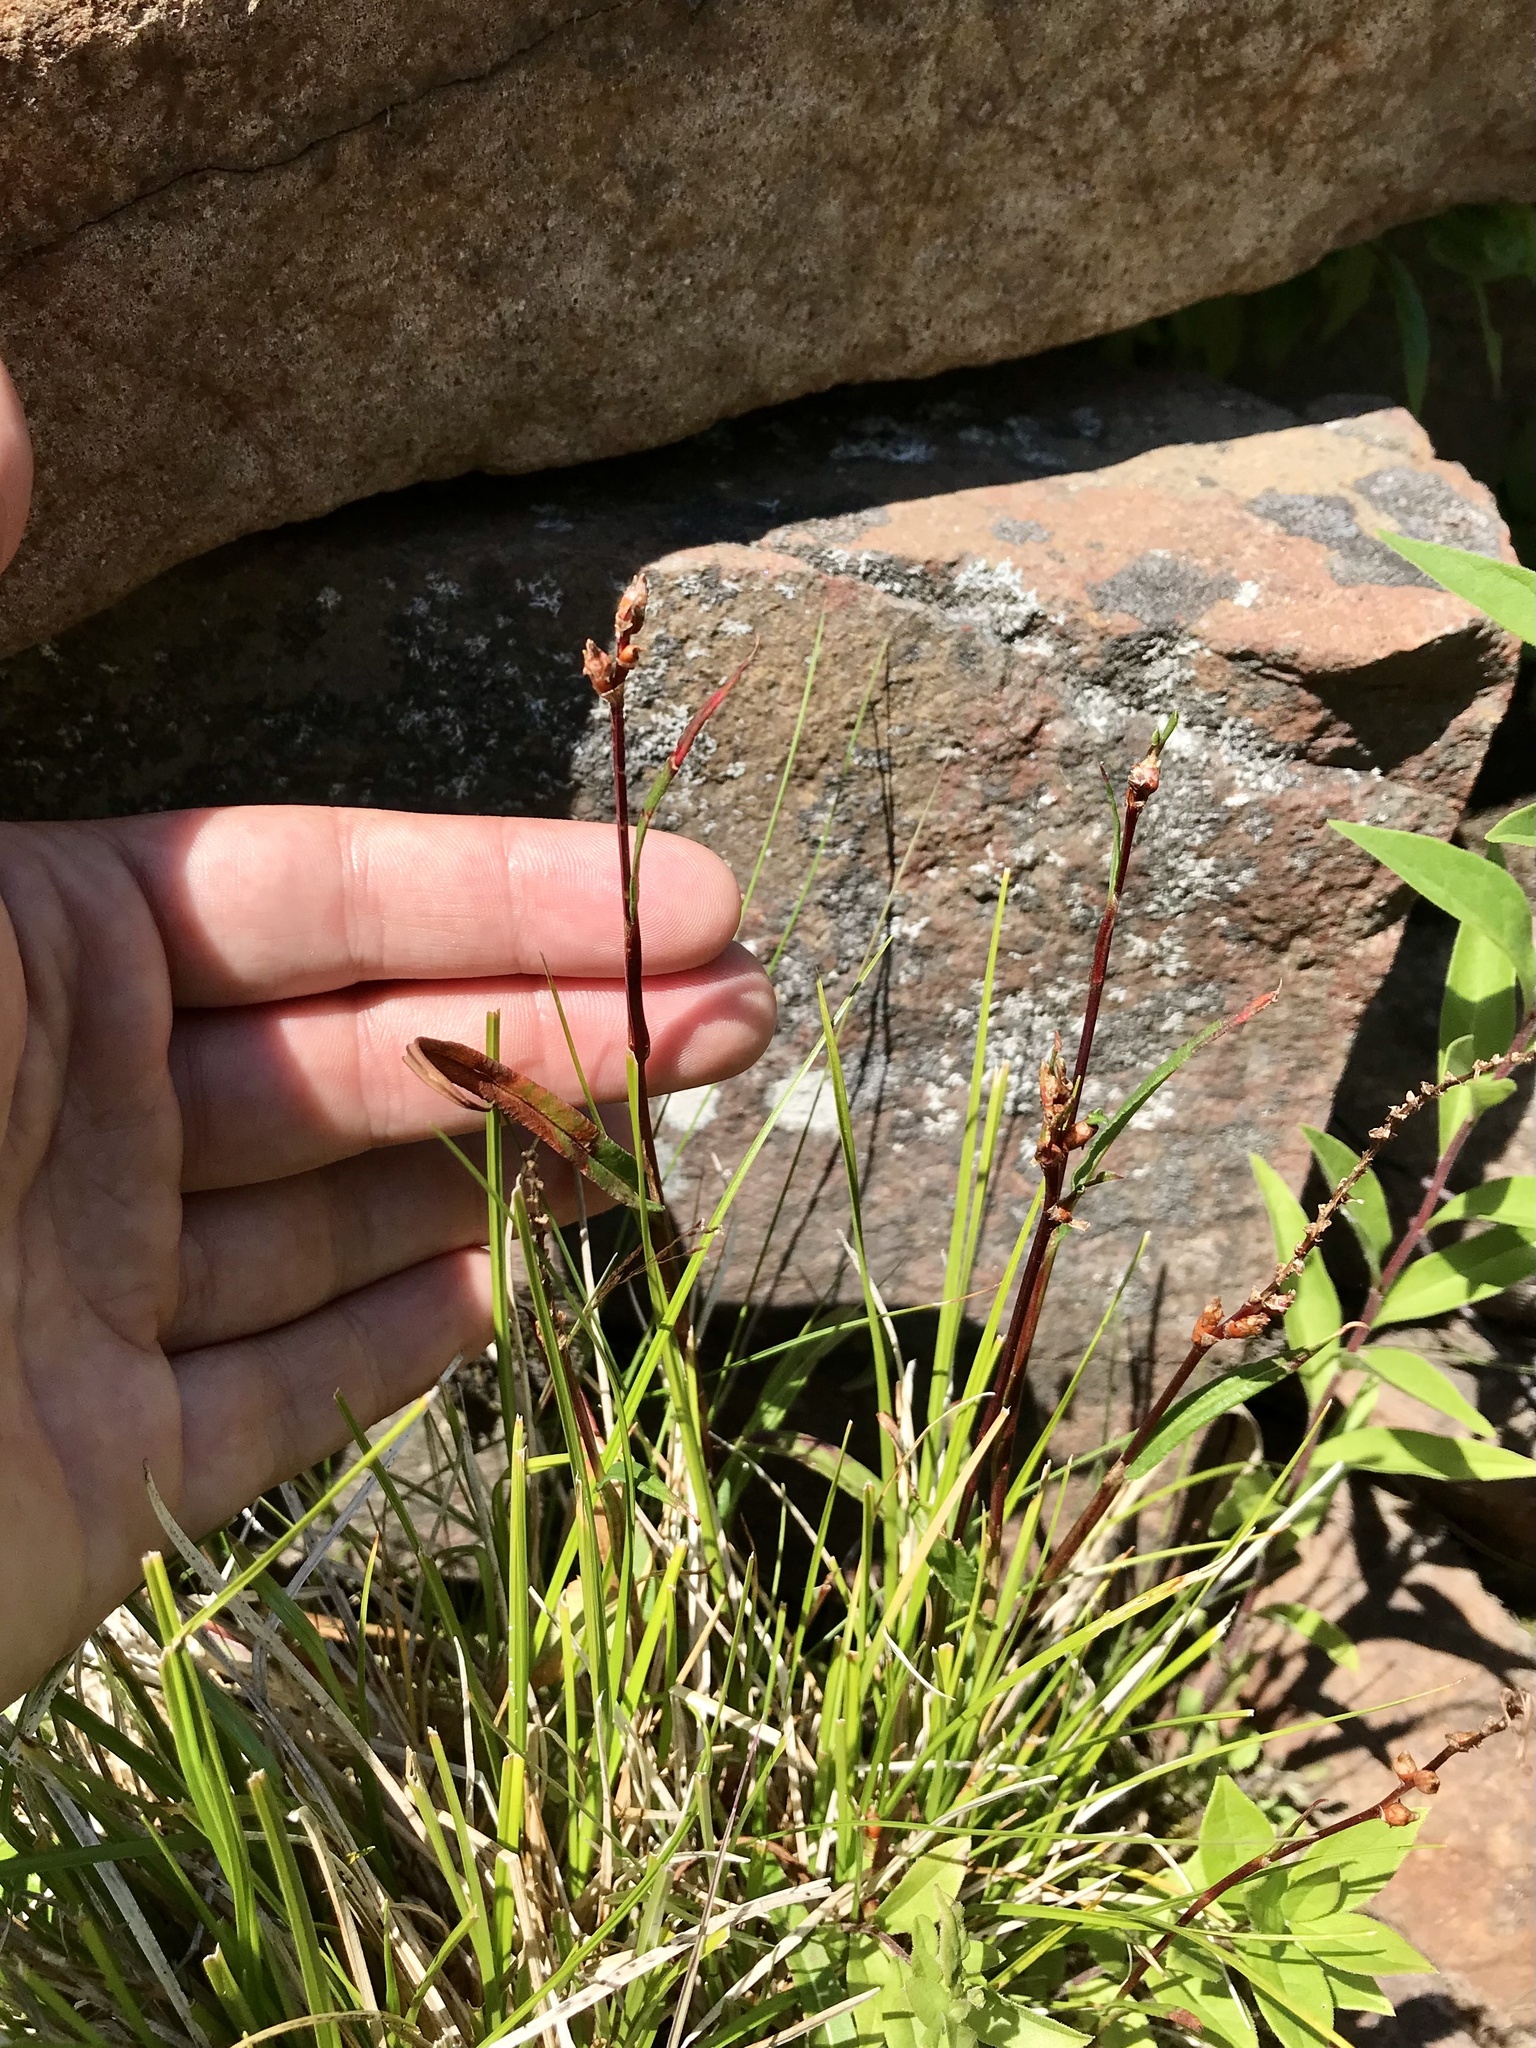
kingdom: Plantae
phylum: Tracheophyta
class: Magnoliopsida
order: Caryophyllales
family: Polygonaceae
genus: Bistorta
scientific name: Bistorta vivipara
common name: Alpine bistort
